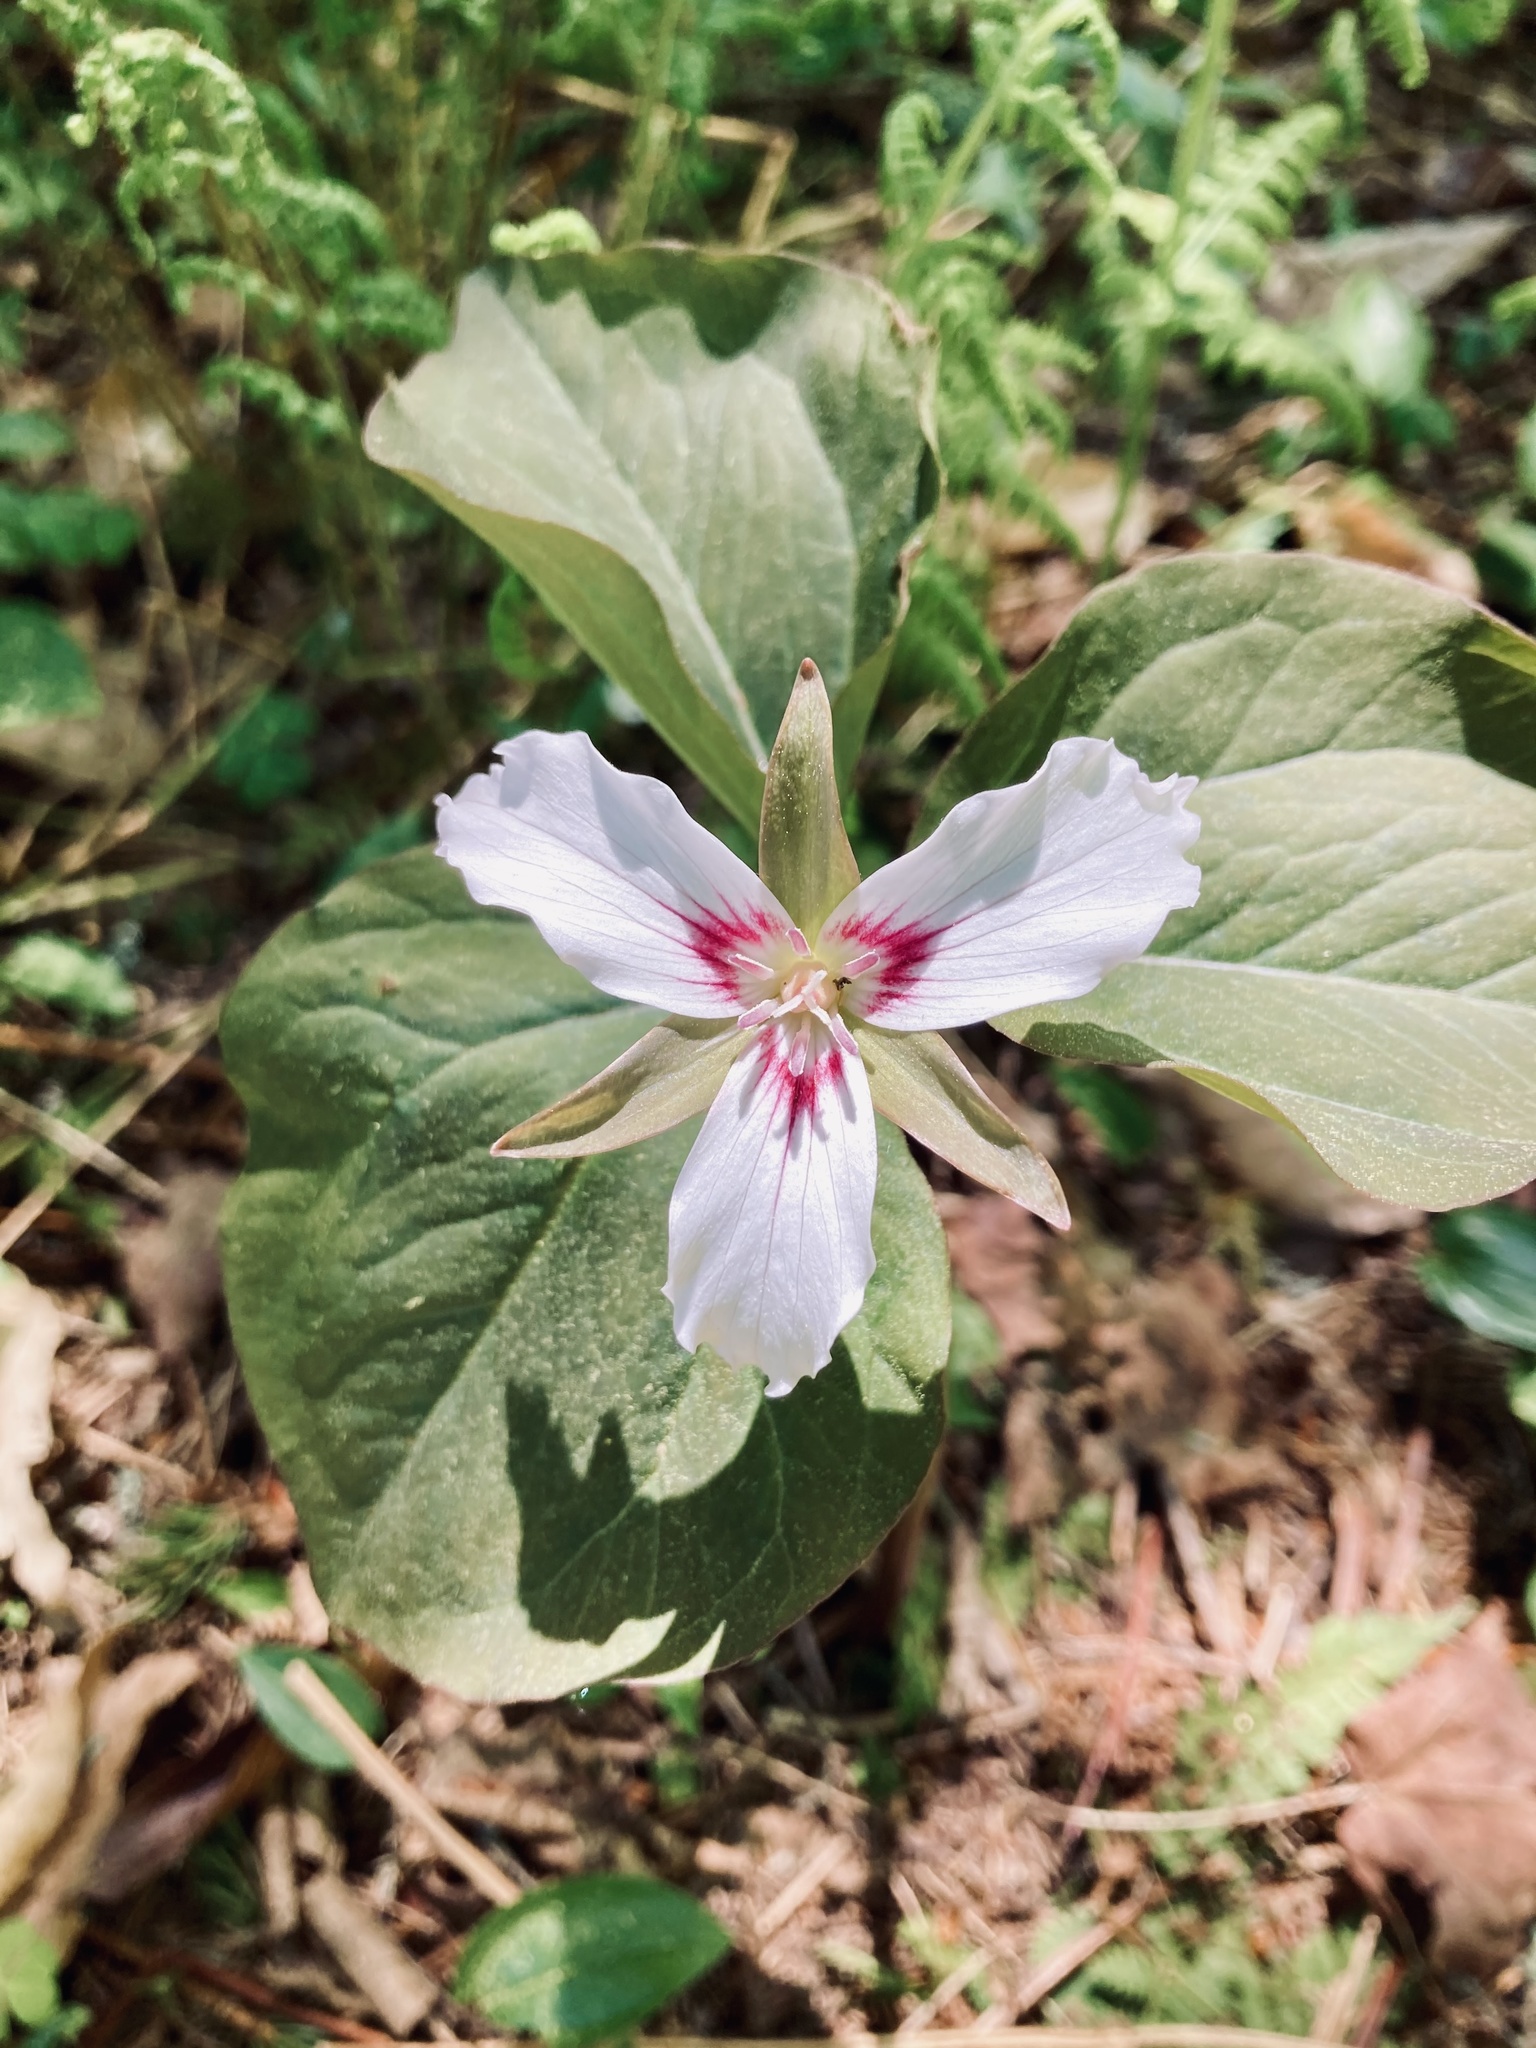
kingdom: Plantae
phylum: Tracheophyta
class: Liliopsida
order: Liliales
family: Melanthiaceae
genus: Trillium
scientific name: Trillium undulatum
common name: Paint trillium
